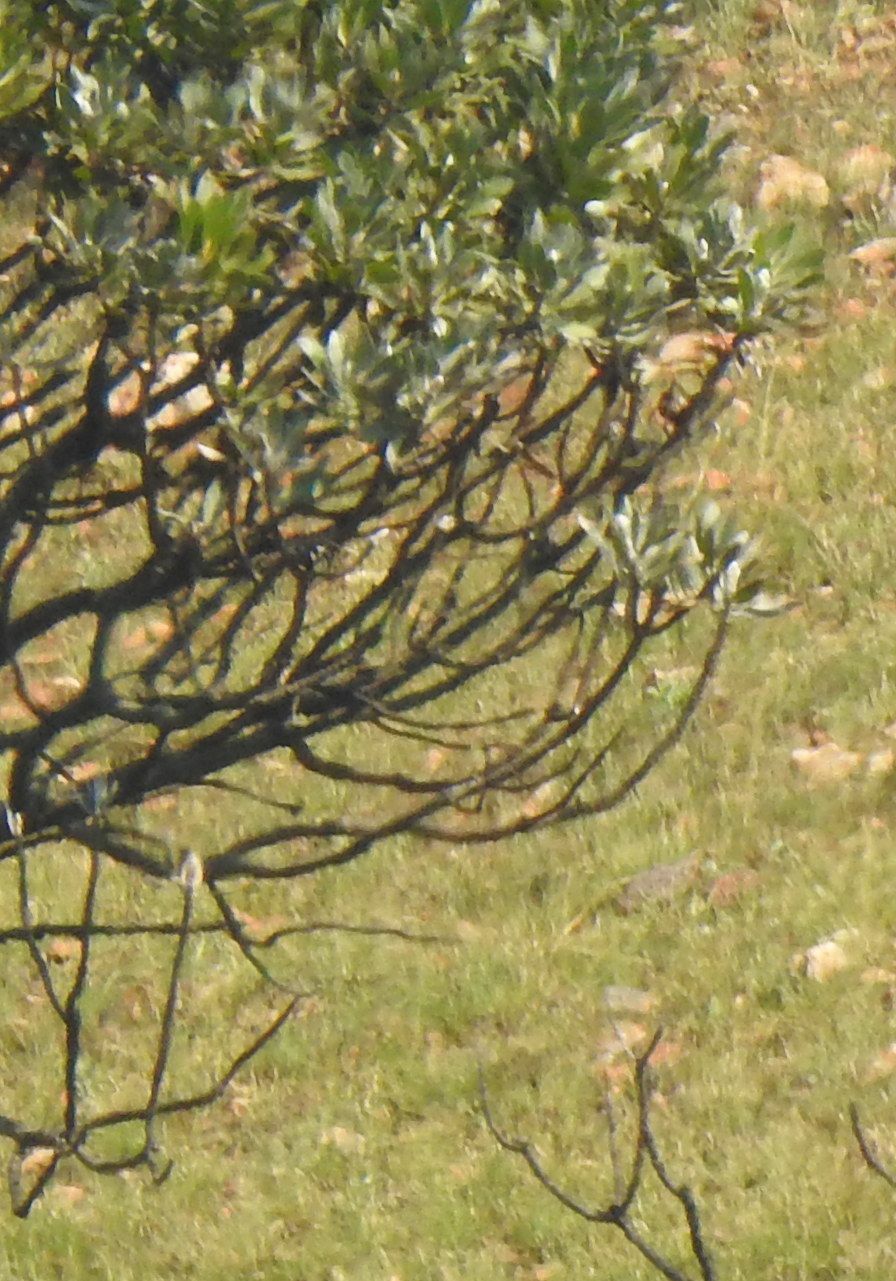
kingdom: Plantae
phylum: Tracheophyta
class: Magnoliopsida
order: Proteales
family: Proteaceae
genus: Protea
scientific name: Protea roupelliae
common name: Silver sugarbush
